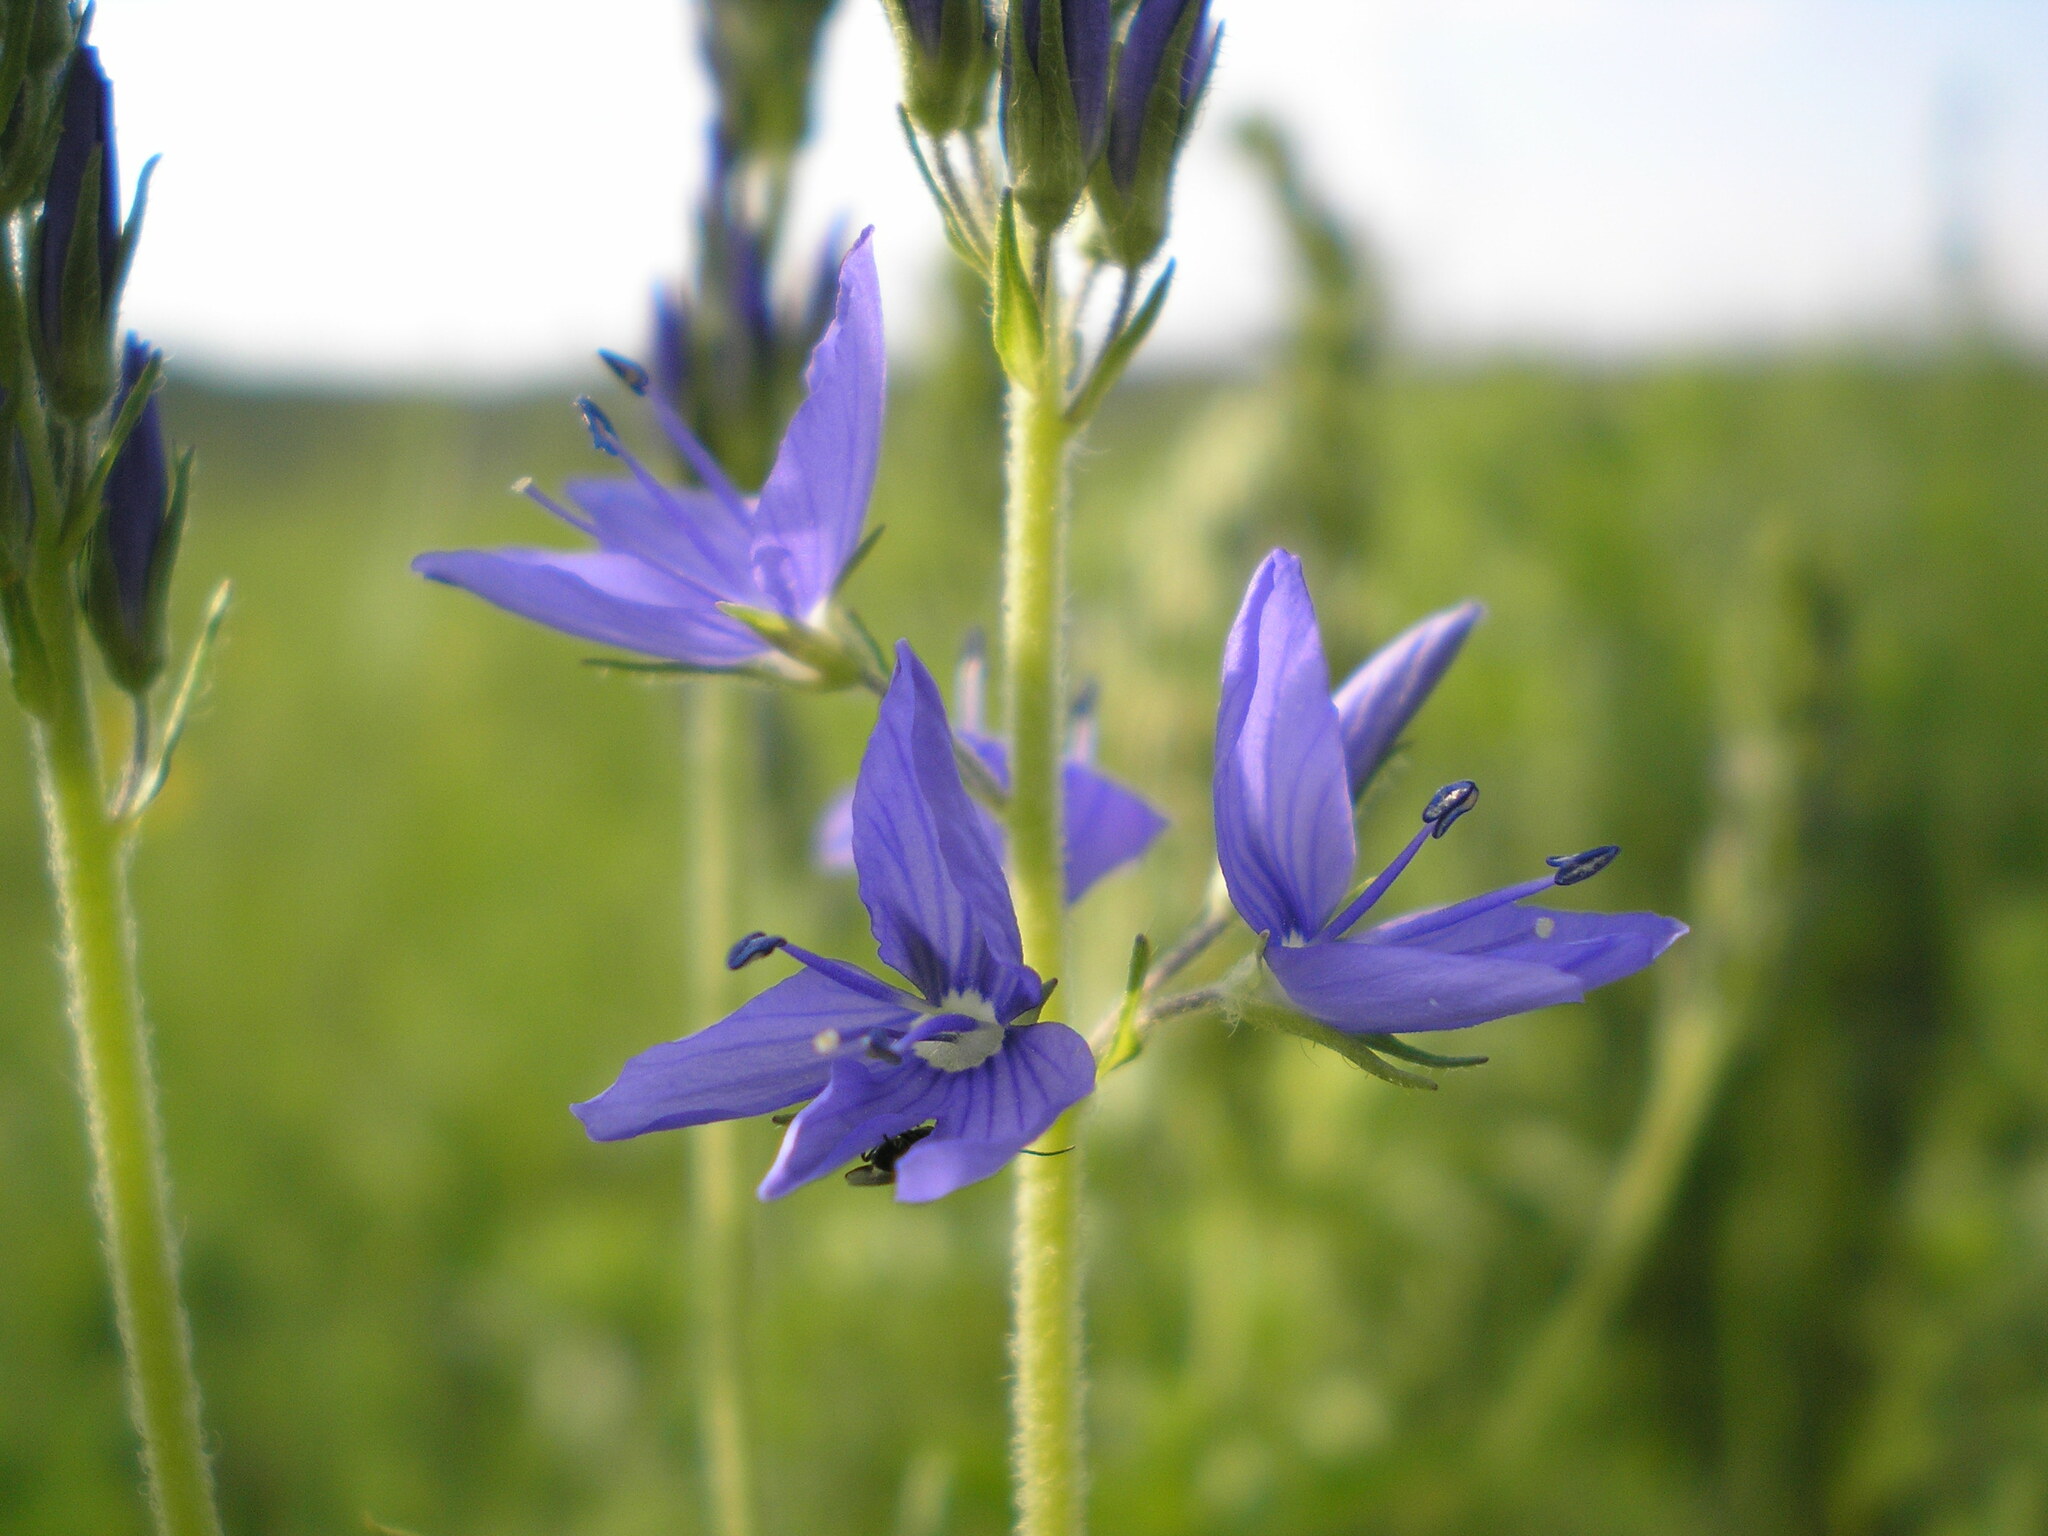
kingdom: Plantae
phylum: Tracheophyta
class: Magnoliopsida
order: Lamiales
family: Plantaginaceae
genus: Veronica
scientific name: Veronica teucrium
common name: Large speedwell
